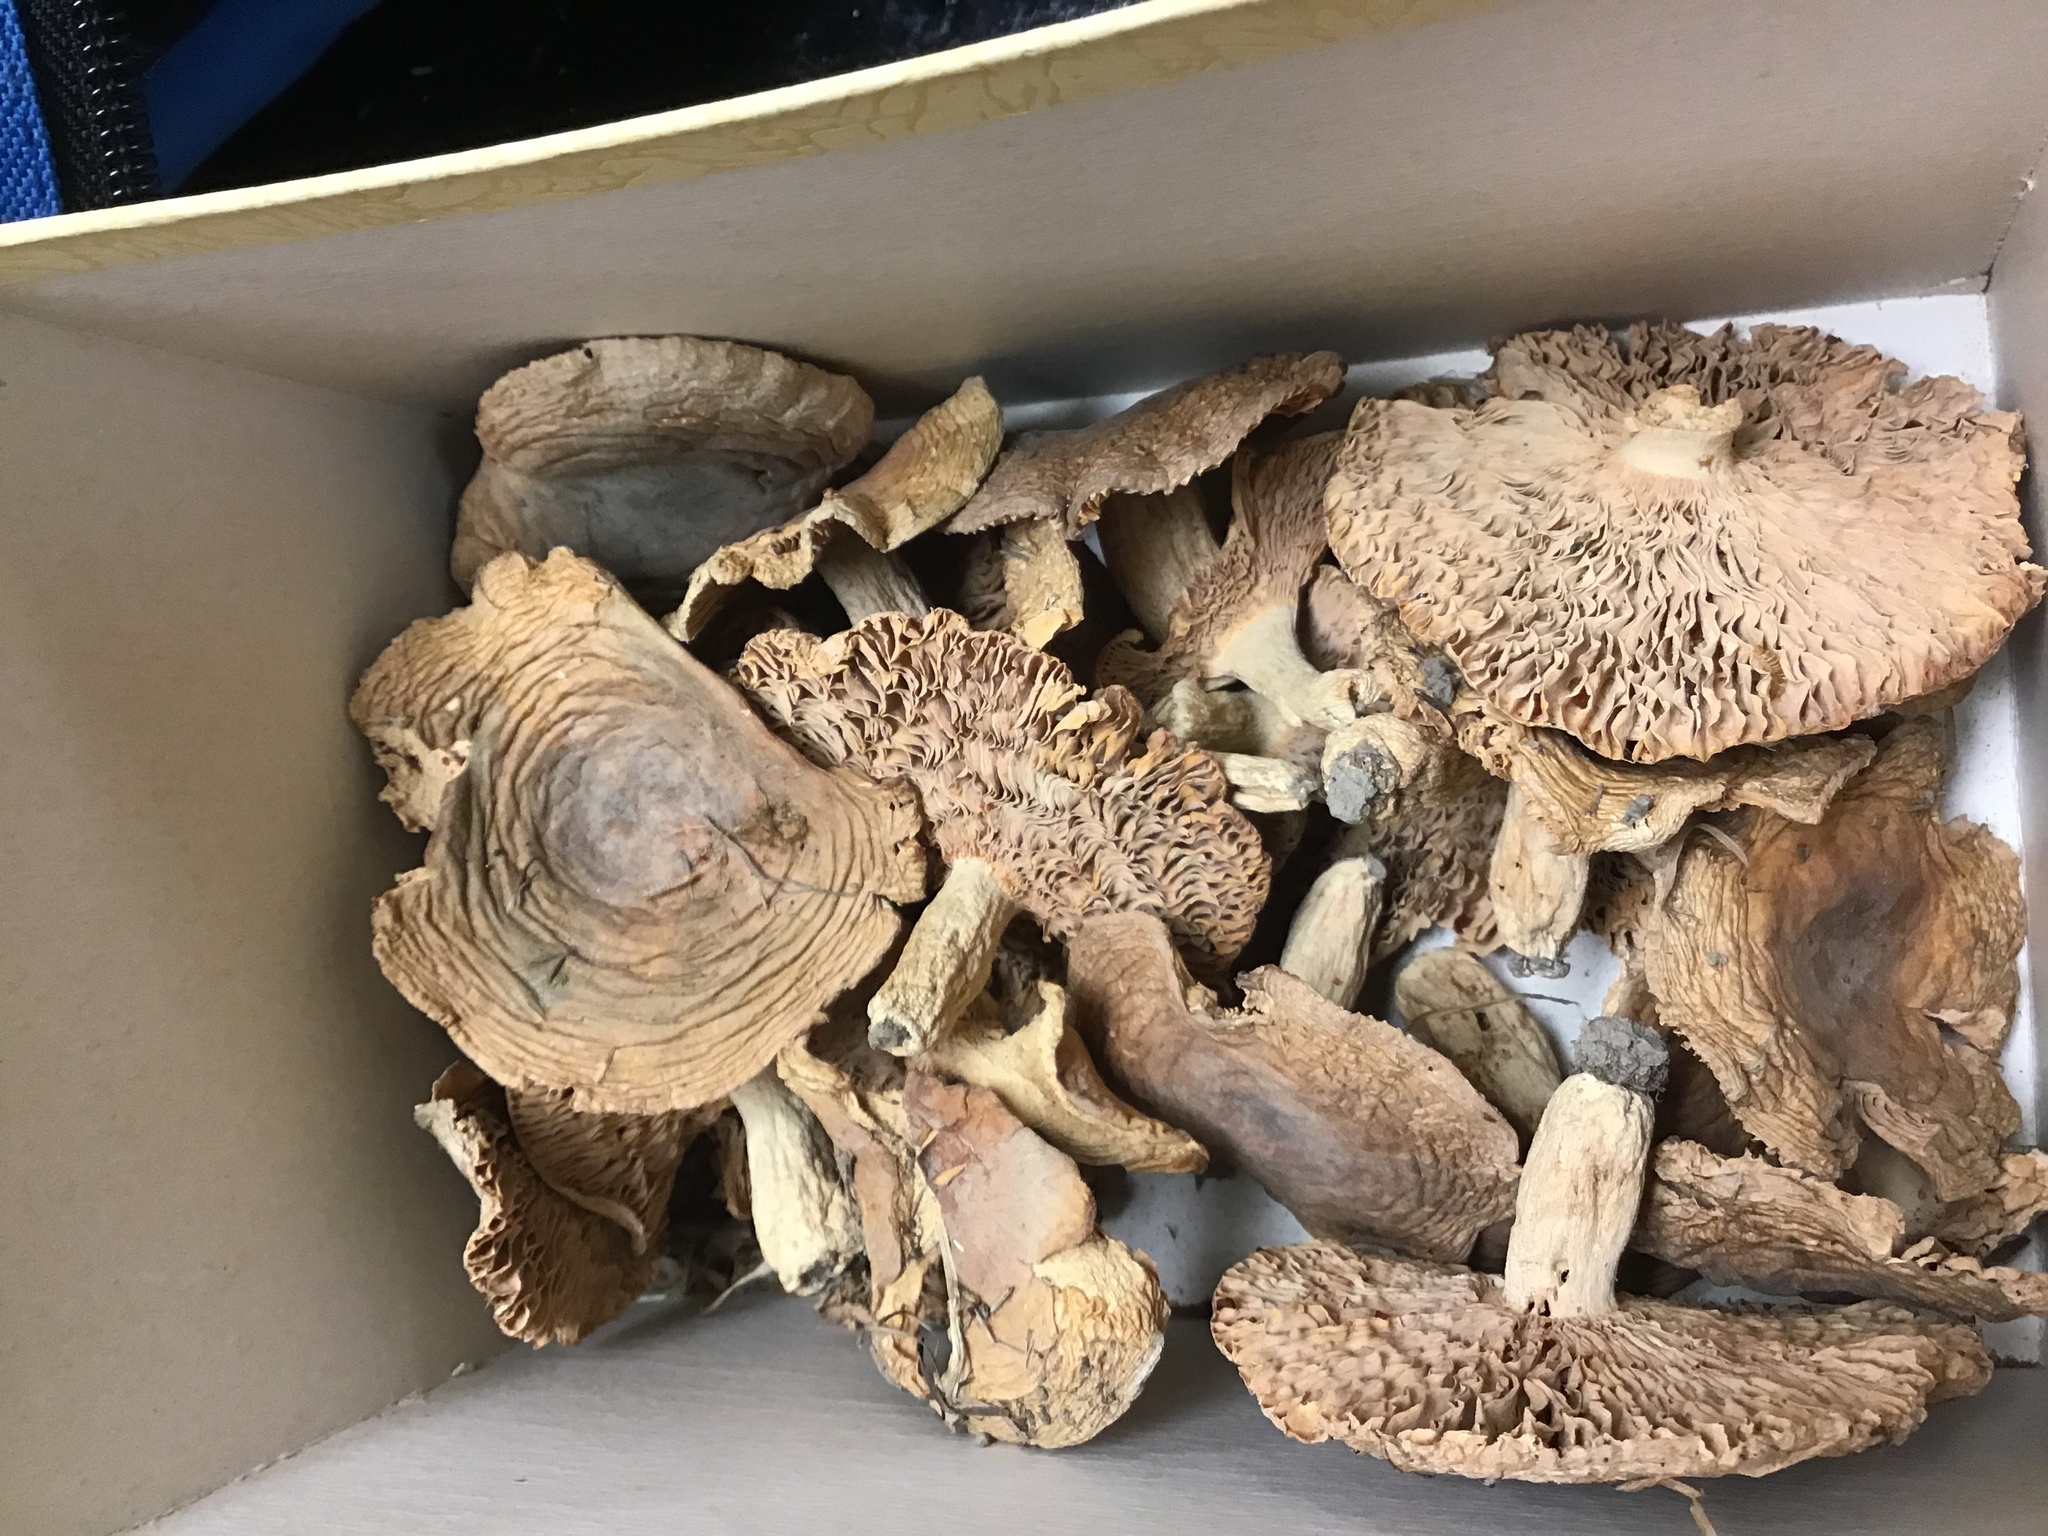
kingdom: Fungi
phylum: Basidiomycota
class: Agaricomycetes
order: Russulales
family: Russulaceae
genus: Russula
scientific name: Russula grisea
